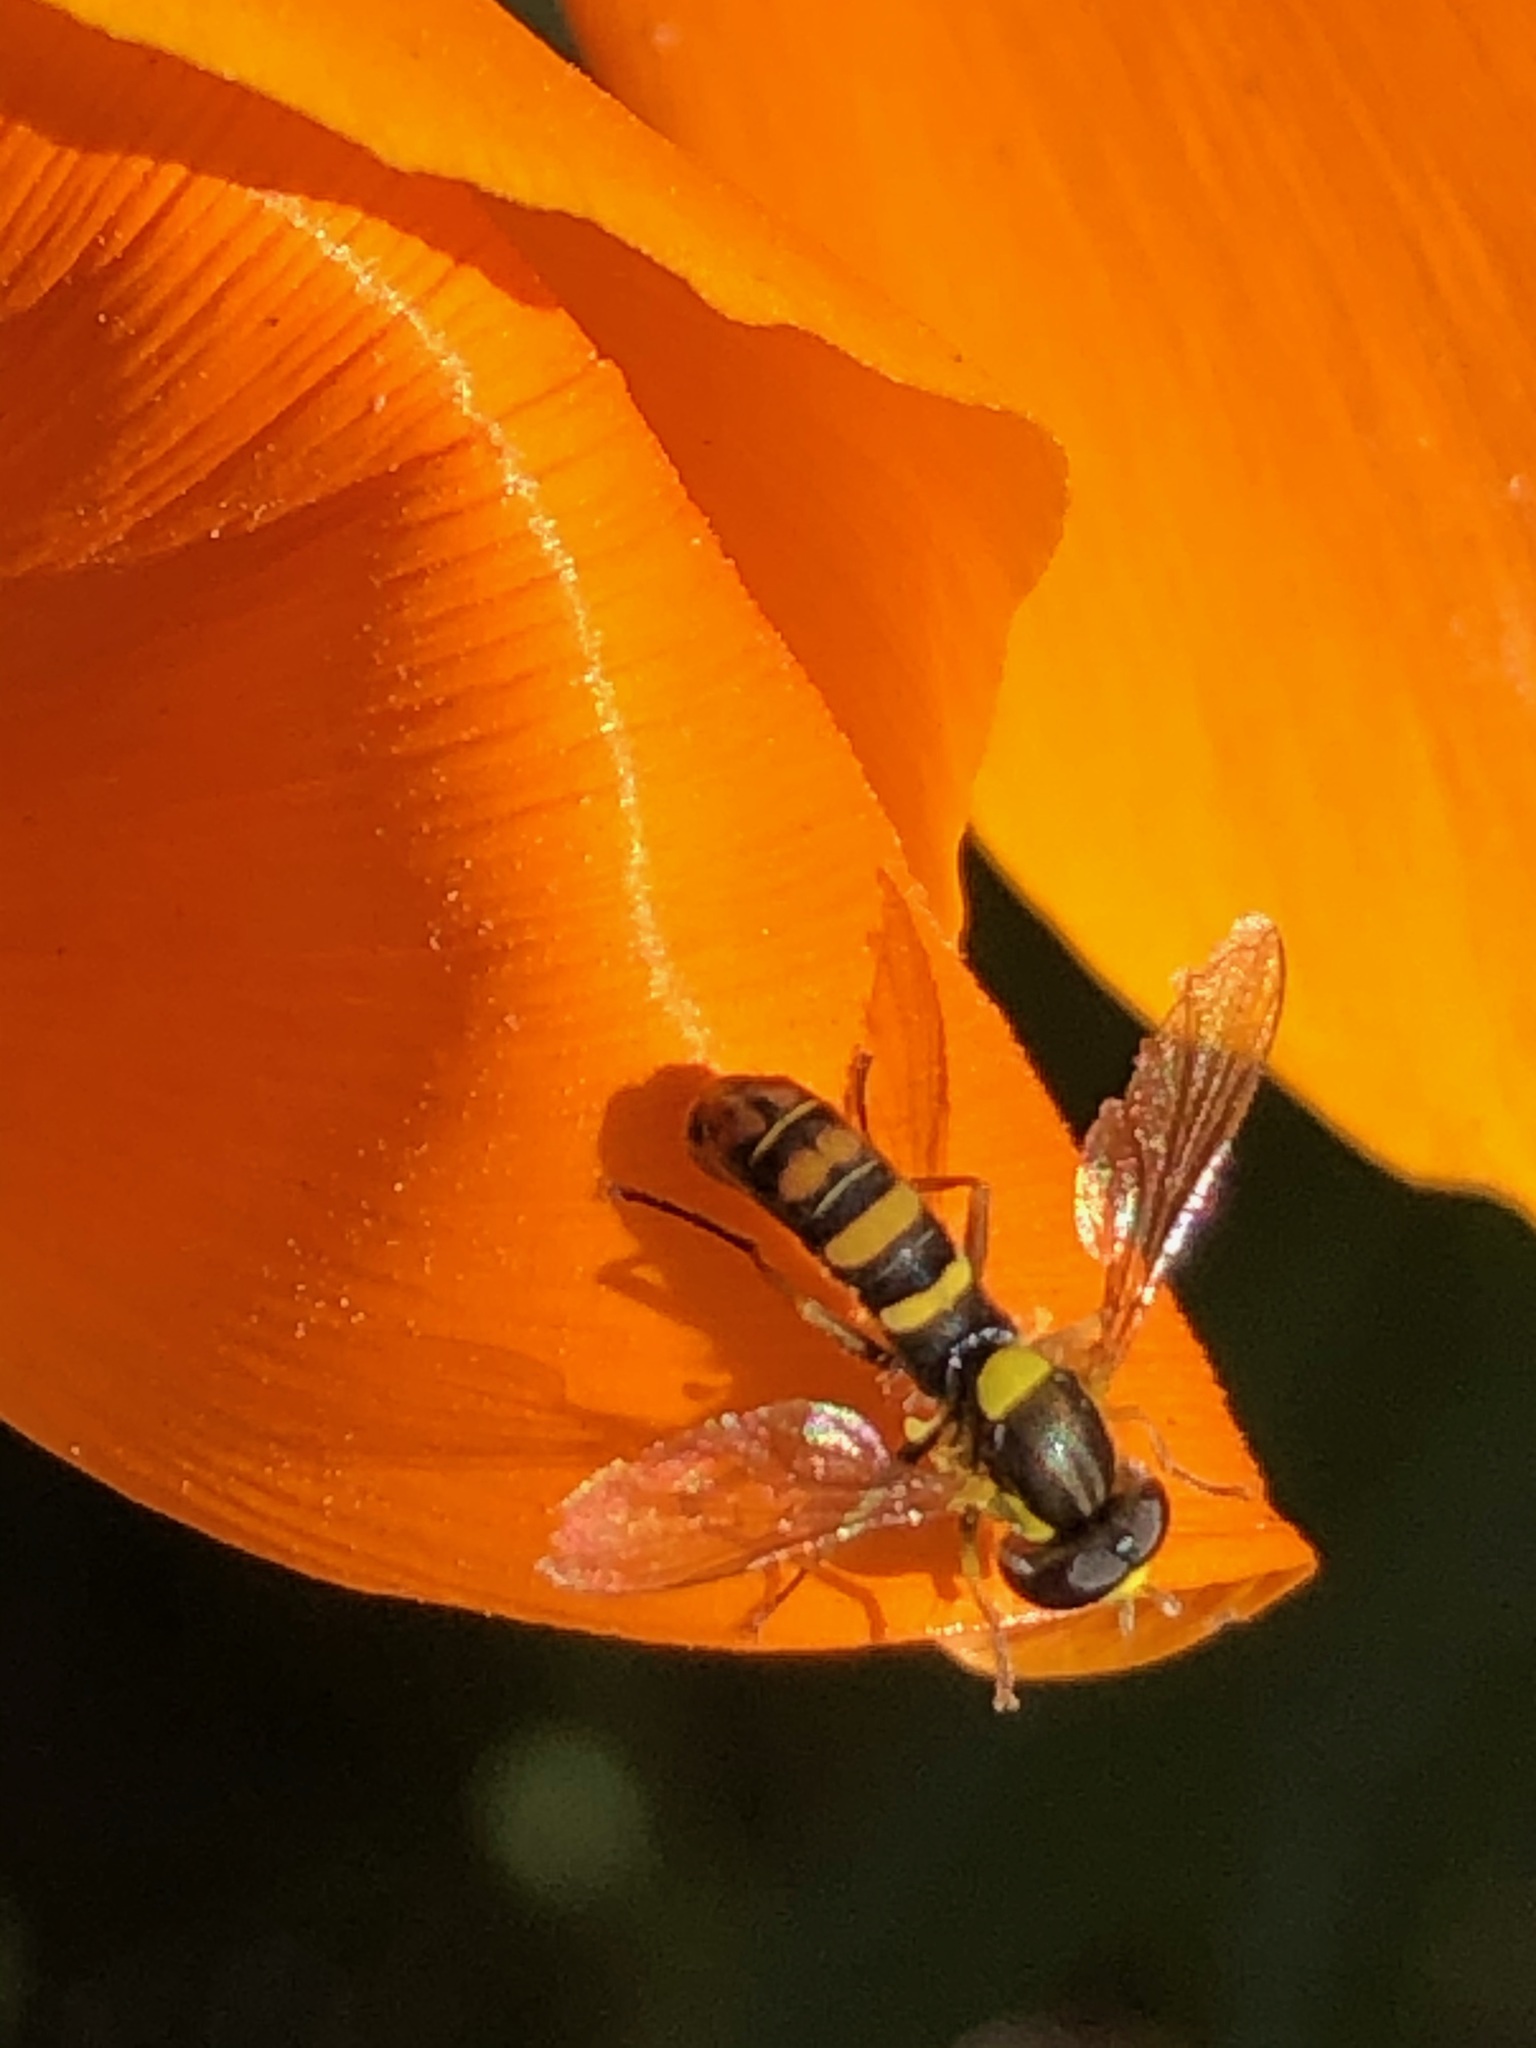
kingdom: Animalia
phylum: Arthropoda
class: Insecta
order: Diptera
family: Syrphidae
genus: Sphaerophoria
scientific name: Sphaerophoria sulphuripes
